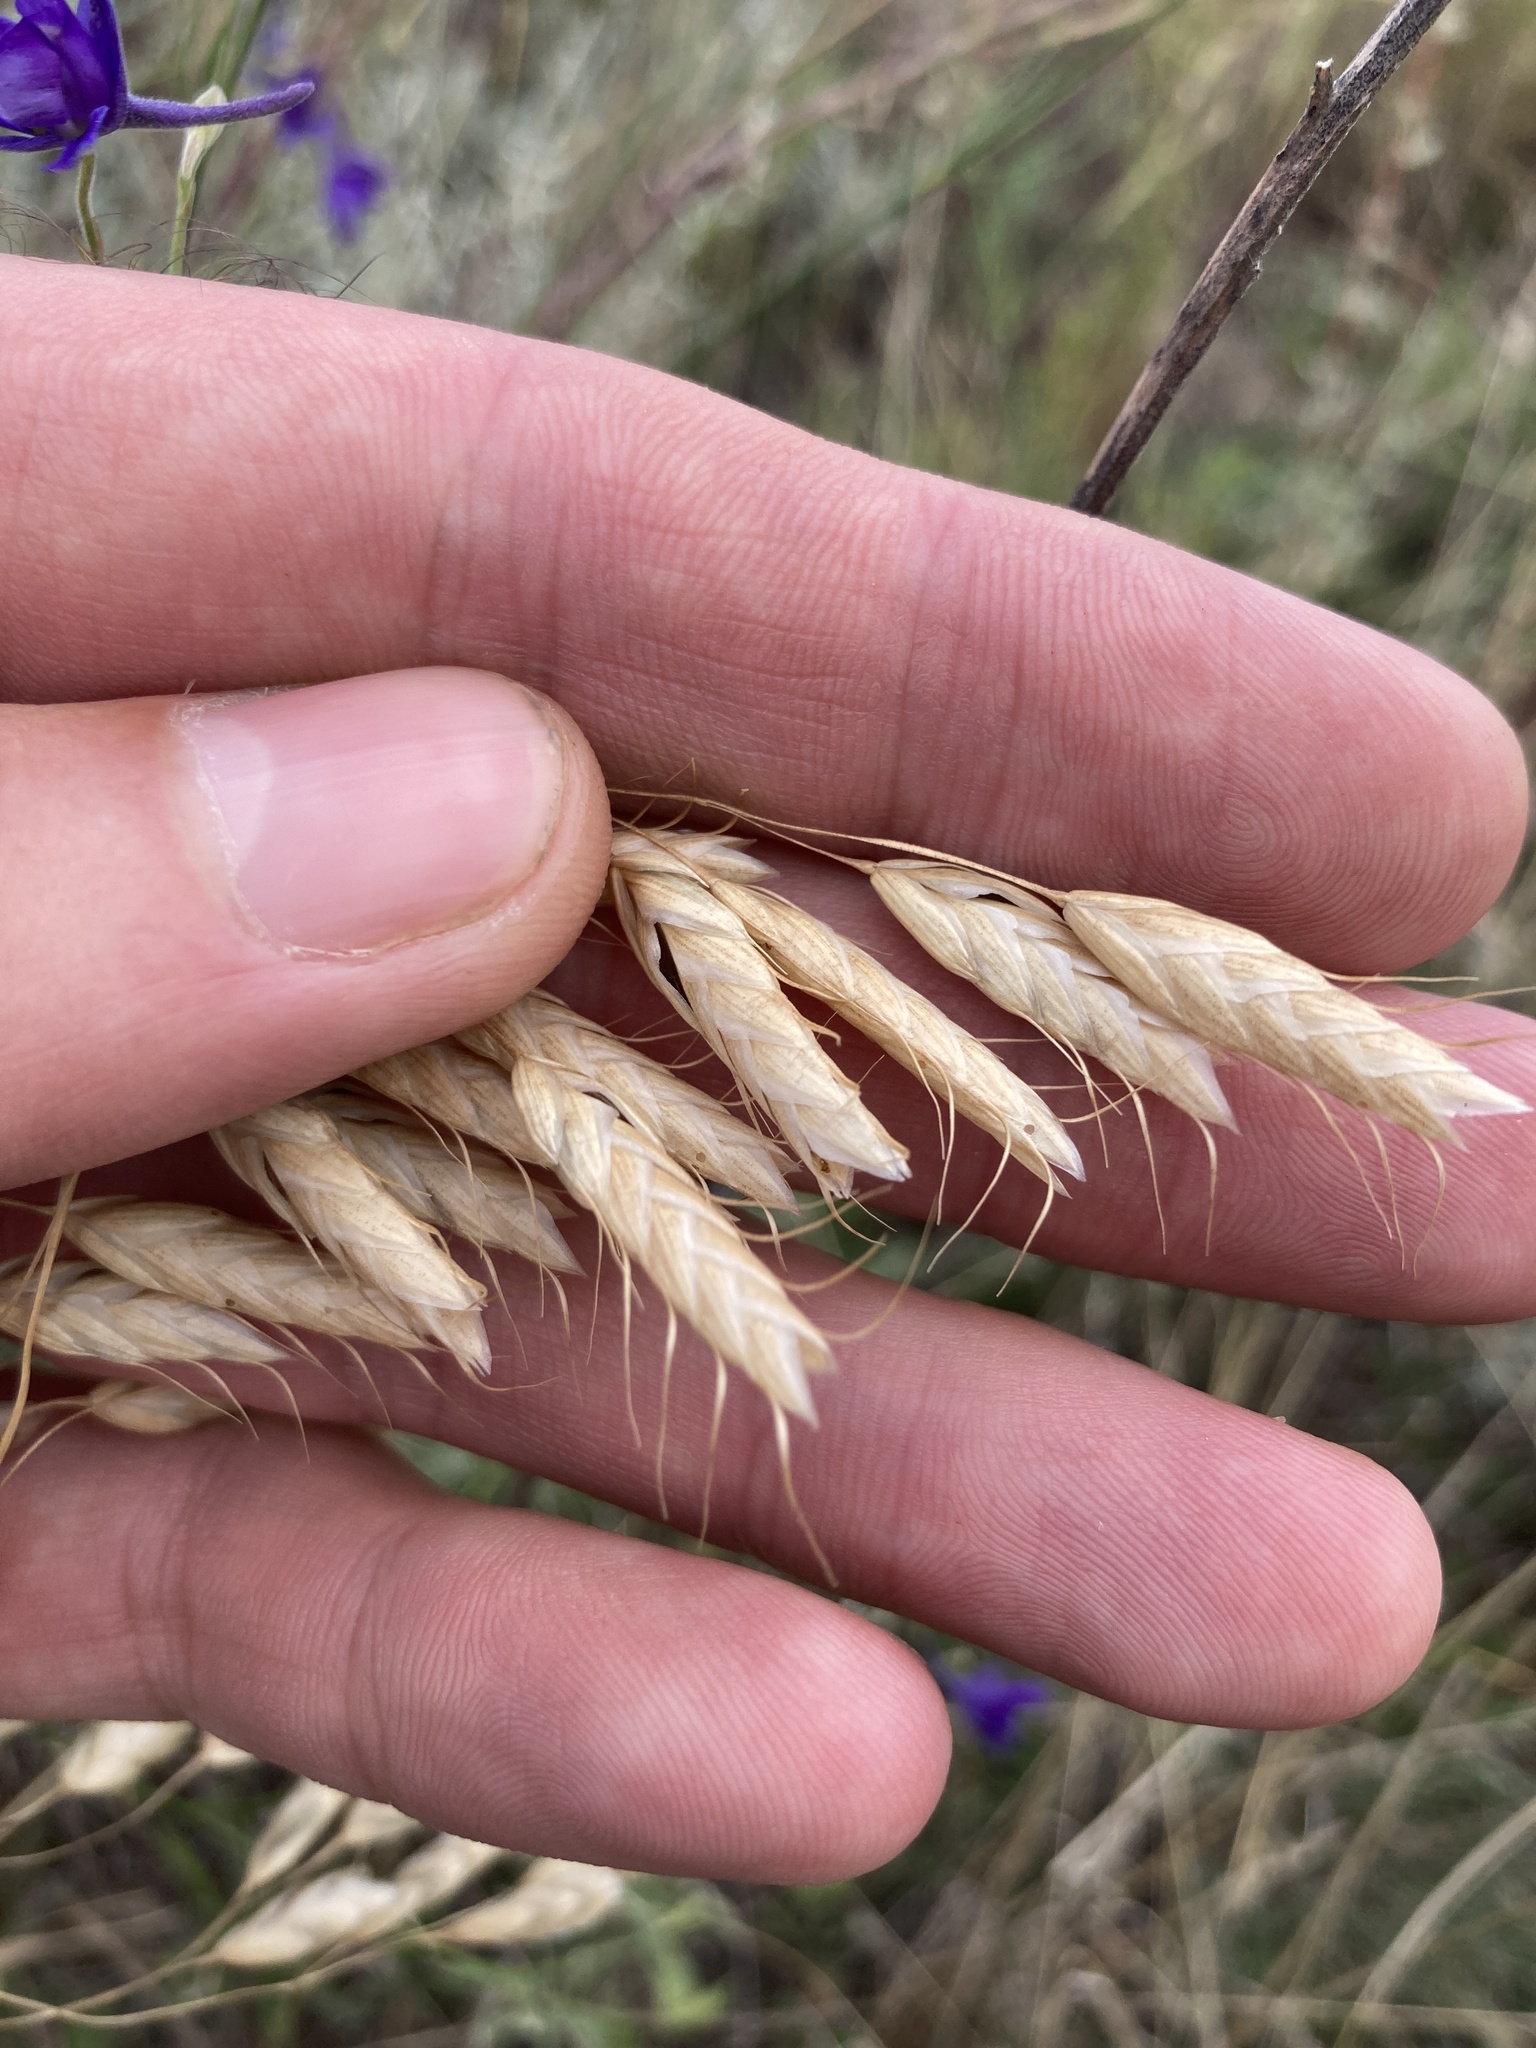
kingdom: Plantae
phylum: Tracheophyta
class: Liliopsida
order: Poales
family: Poaceae
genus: Bromus
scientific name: Bromus squarrosus
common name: Corn brome
